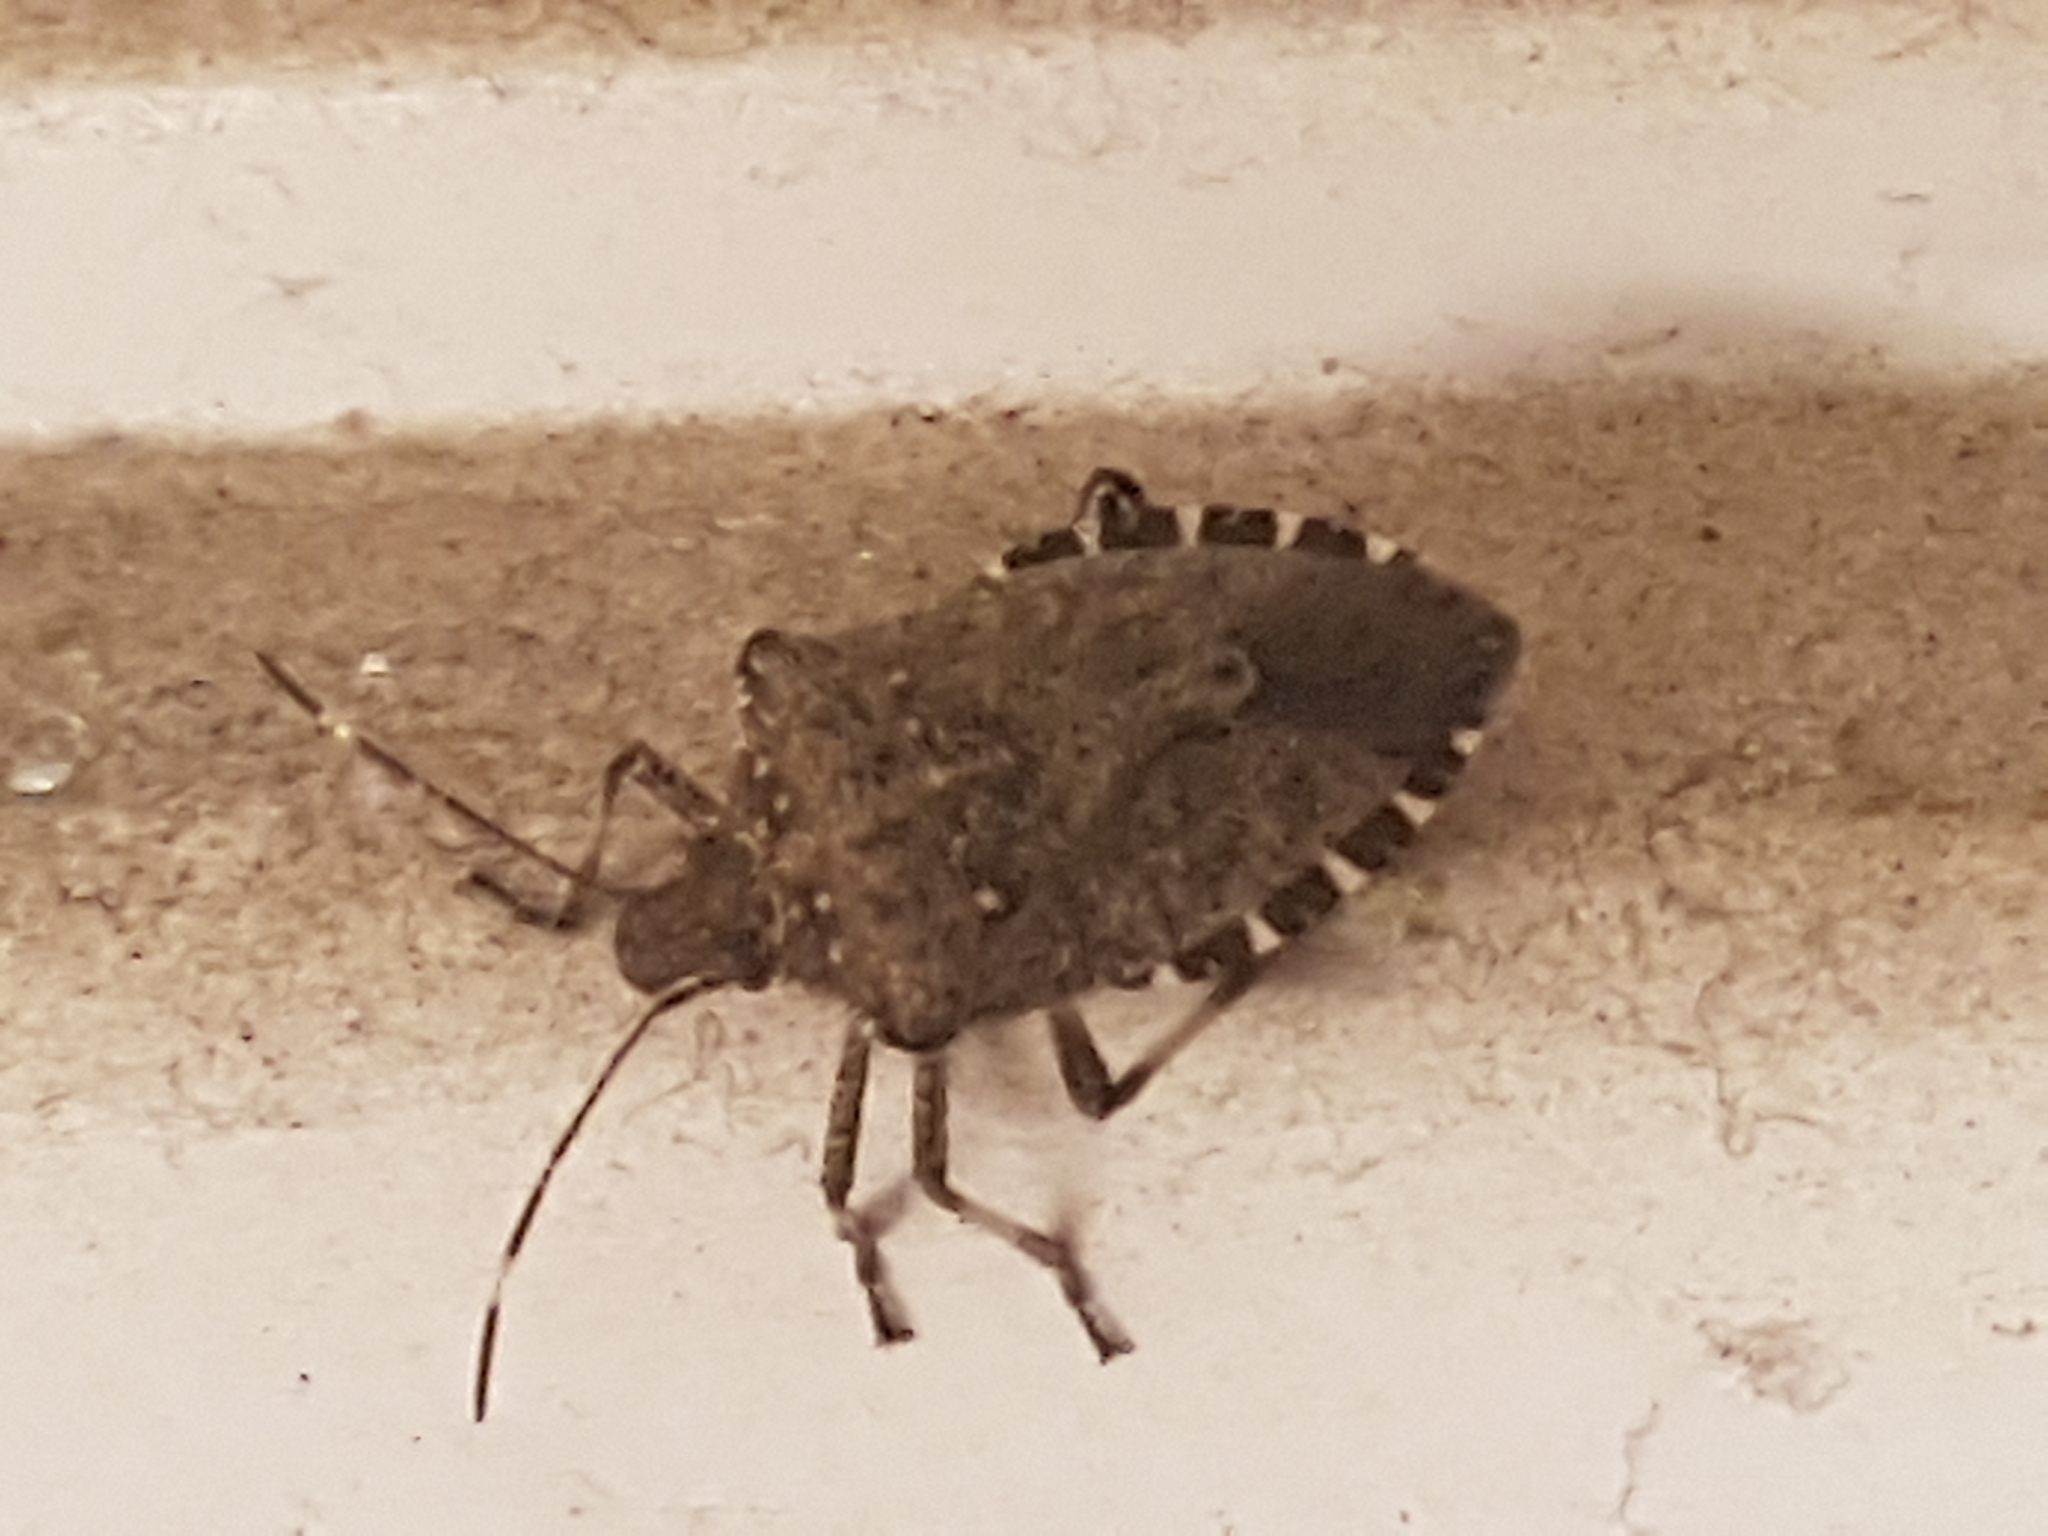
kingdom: Animalia
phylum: Arthropoda
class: Insecta
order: Hemiptera
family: Pentatomidae
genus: Halyomorpha
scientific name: Halyomorpha halys
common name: Brown marmorated stink bug
